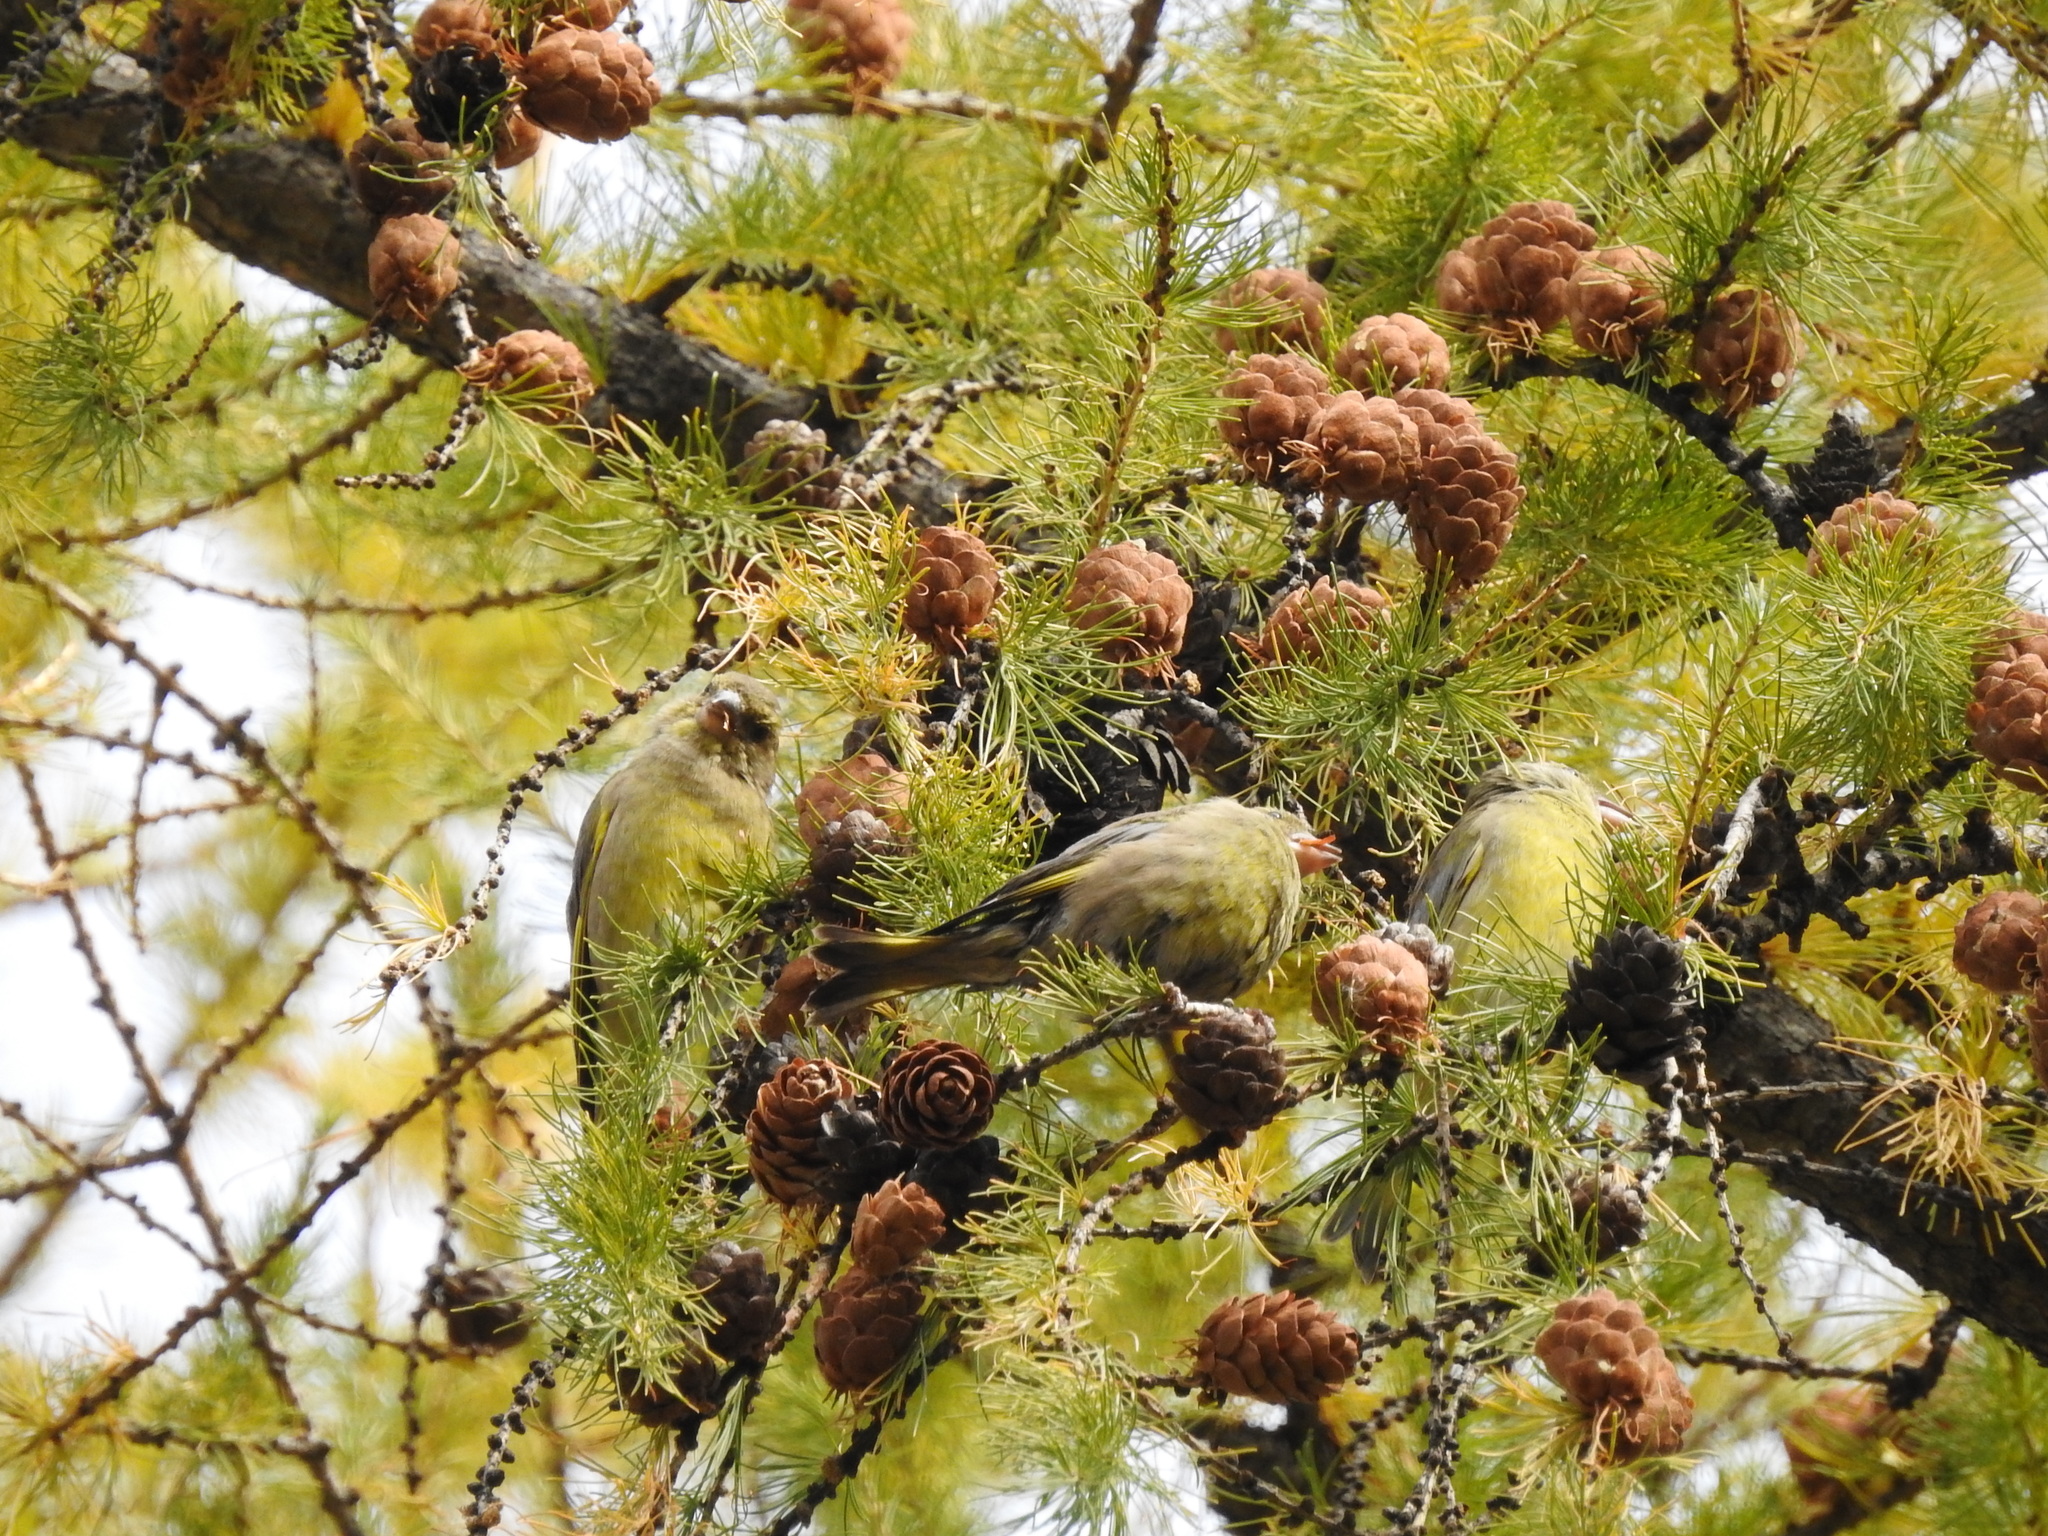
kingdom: Plantae
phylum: Tracheophyta
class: Liliopsida
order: Poales
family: Poaceae
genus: Chloris
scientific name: Chloris chloris
